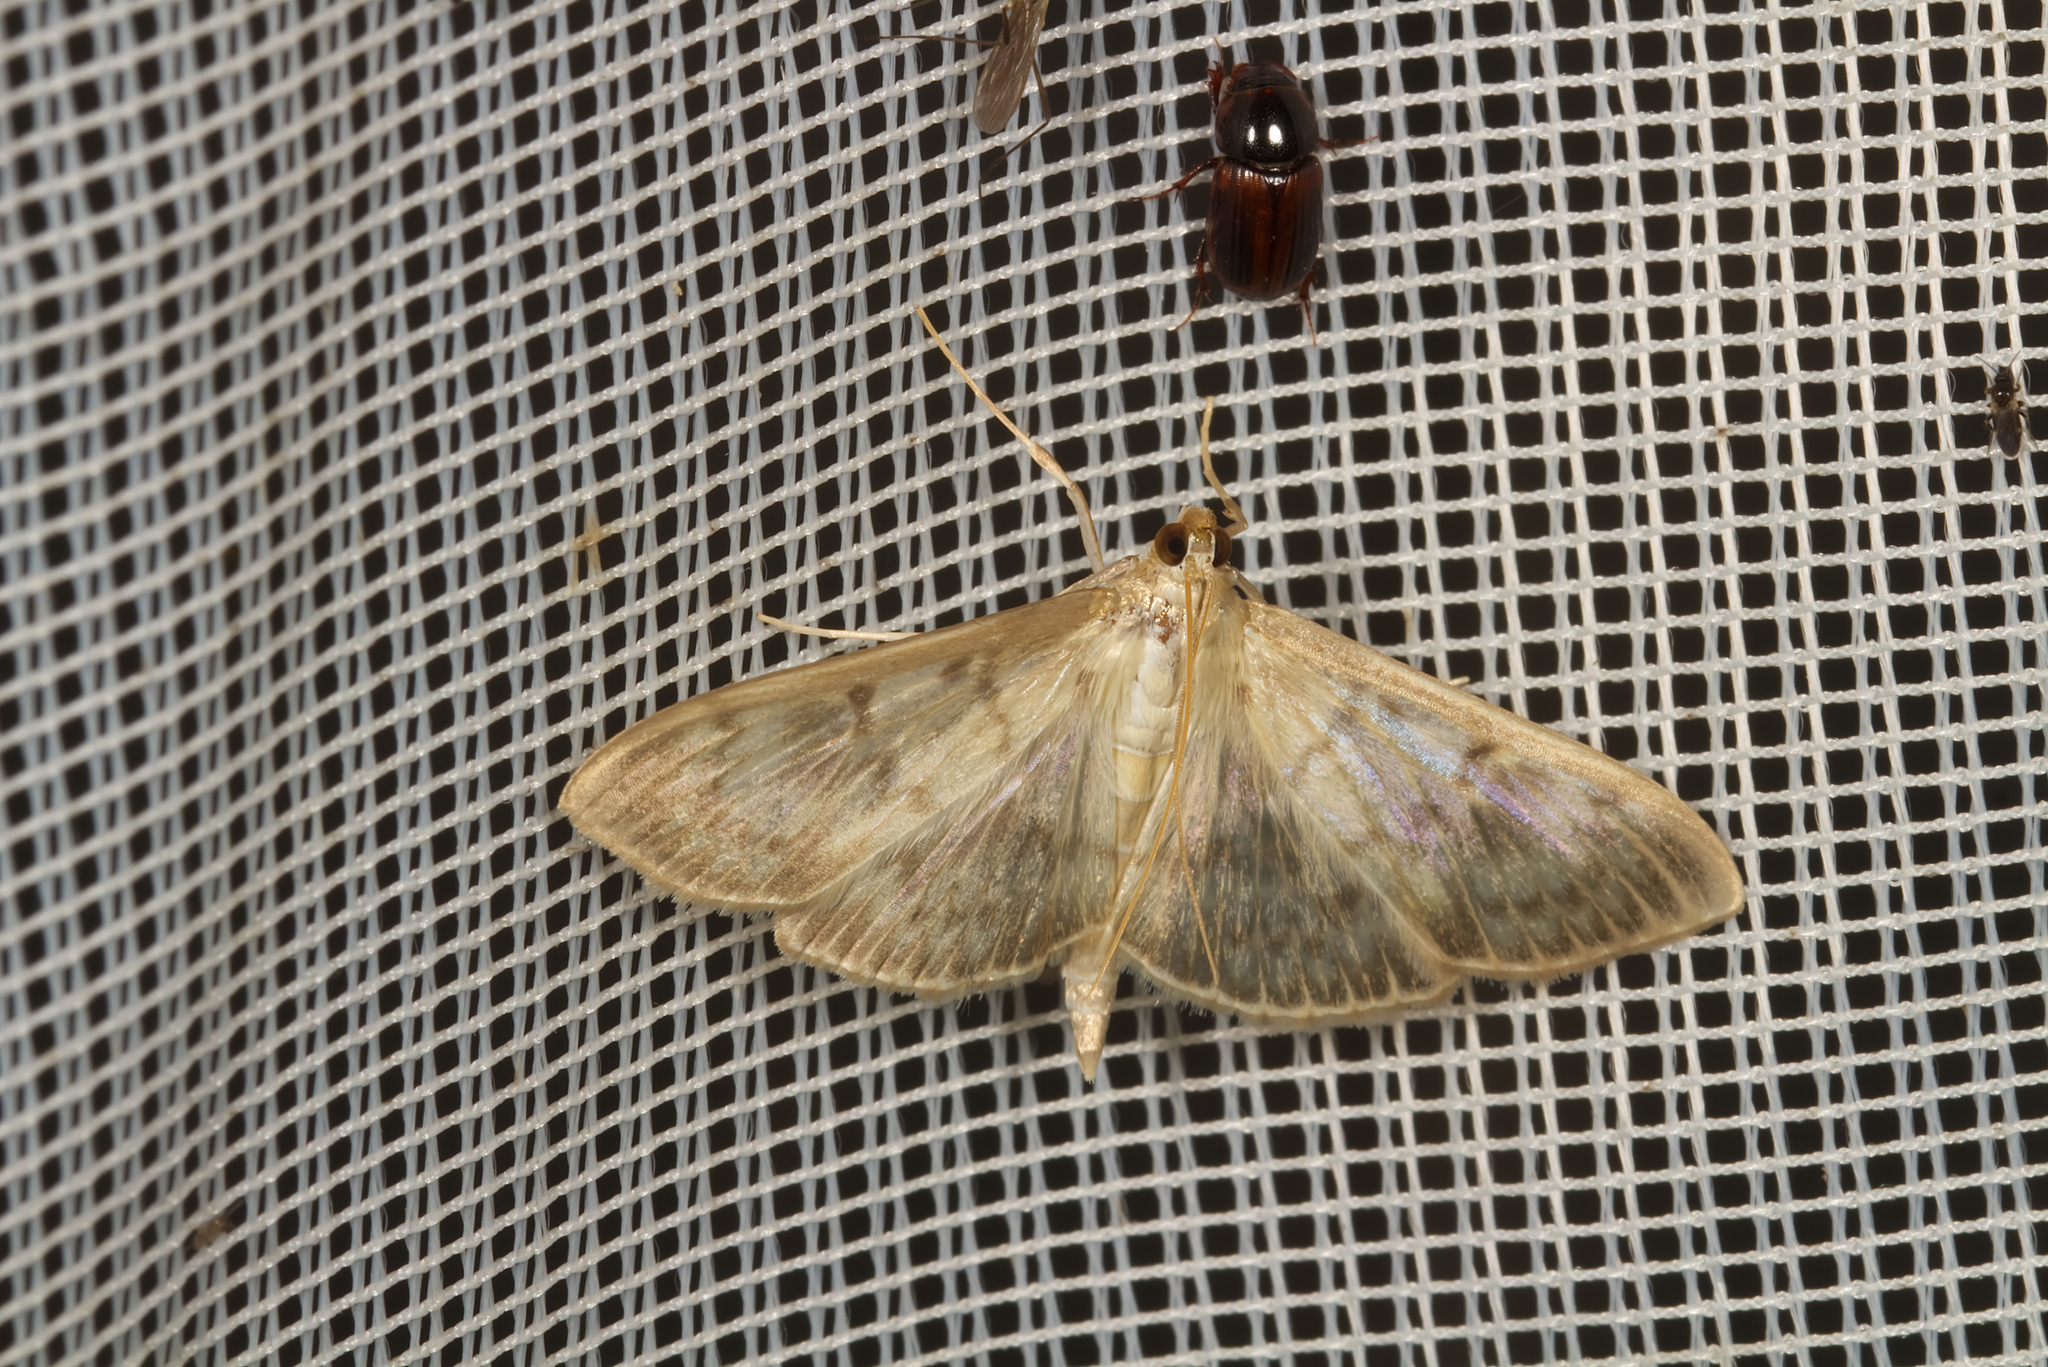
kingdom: Animalia
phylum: Arthropoda
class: Insecta
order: Lepidoptera
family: Crambidae
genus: Patania
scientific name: Patania ruralis
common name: Mother of pearl
